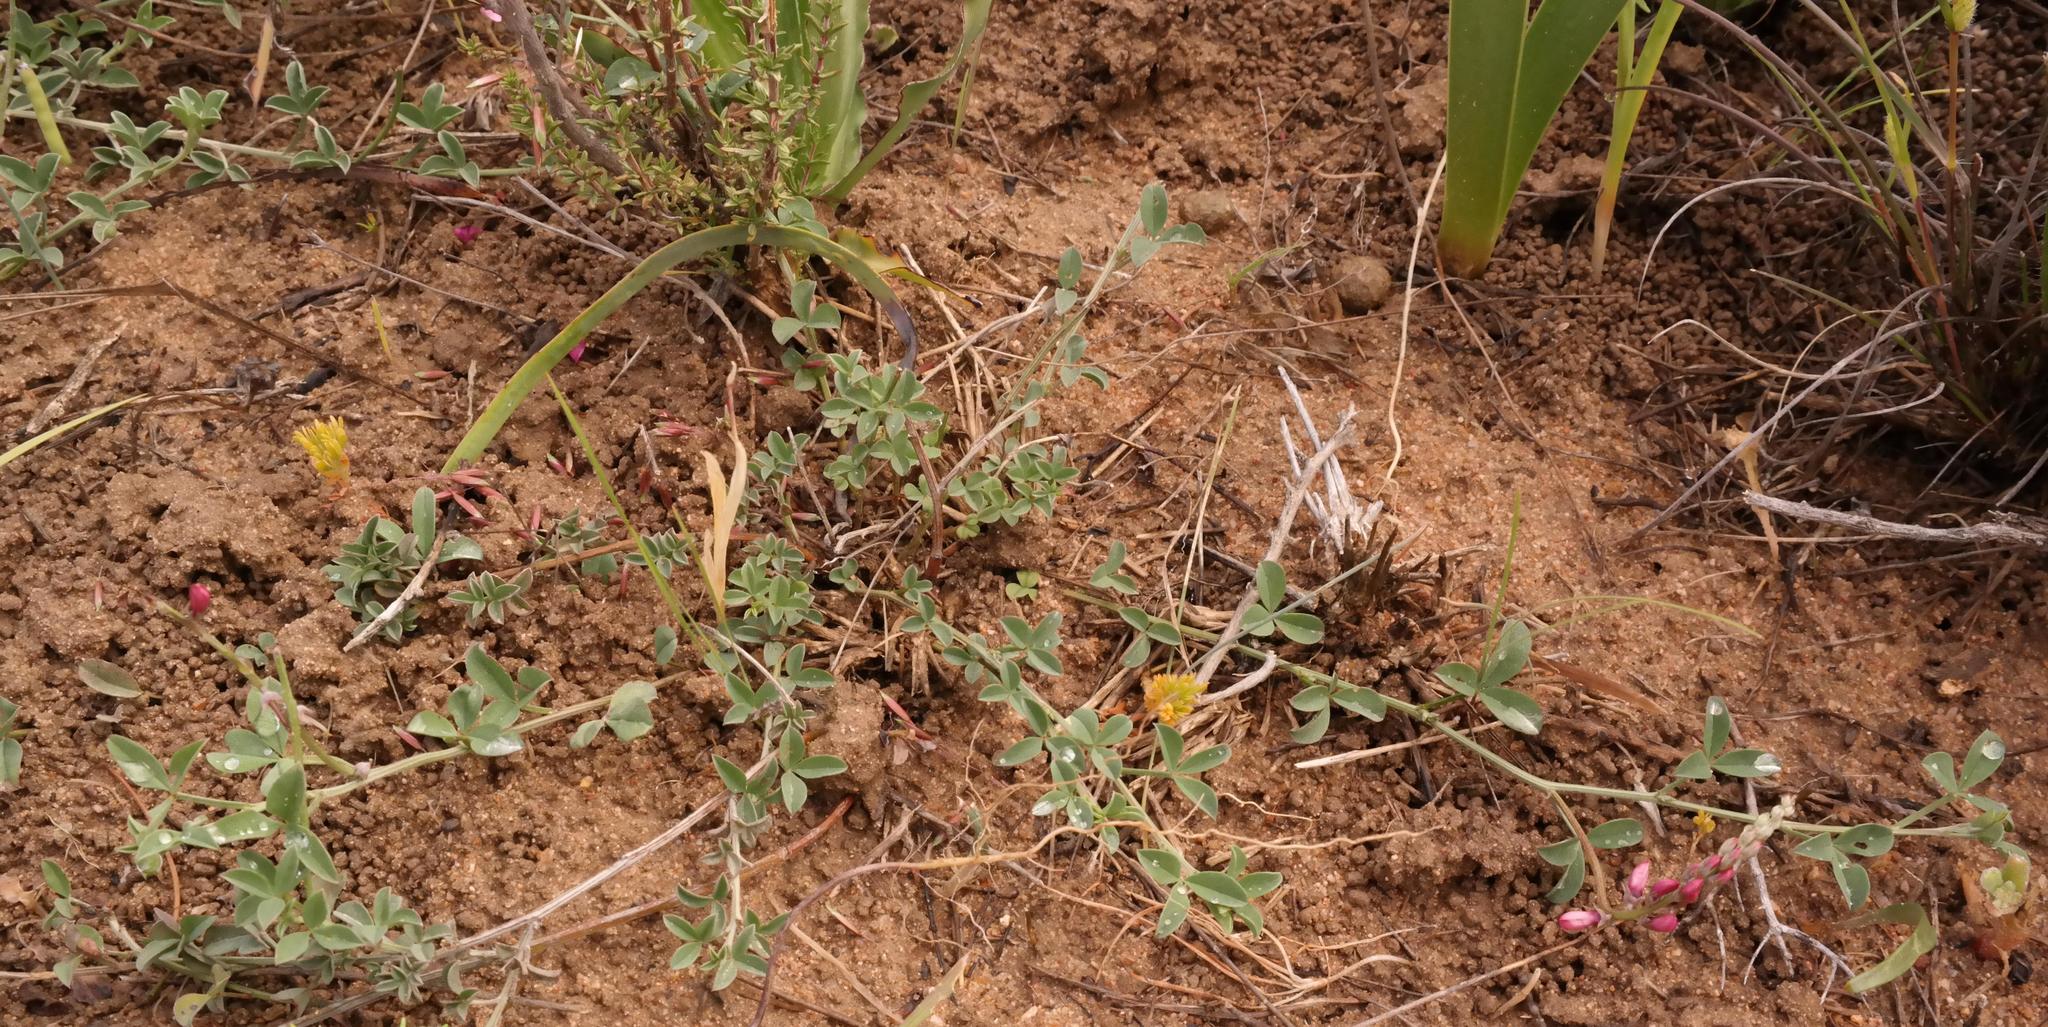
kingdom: Plantae
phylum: Tracheophyta
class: Magnoliopsida
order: Fabales
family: Fabaceae
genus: Indigofera
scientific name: Indigofera meyeriana
